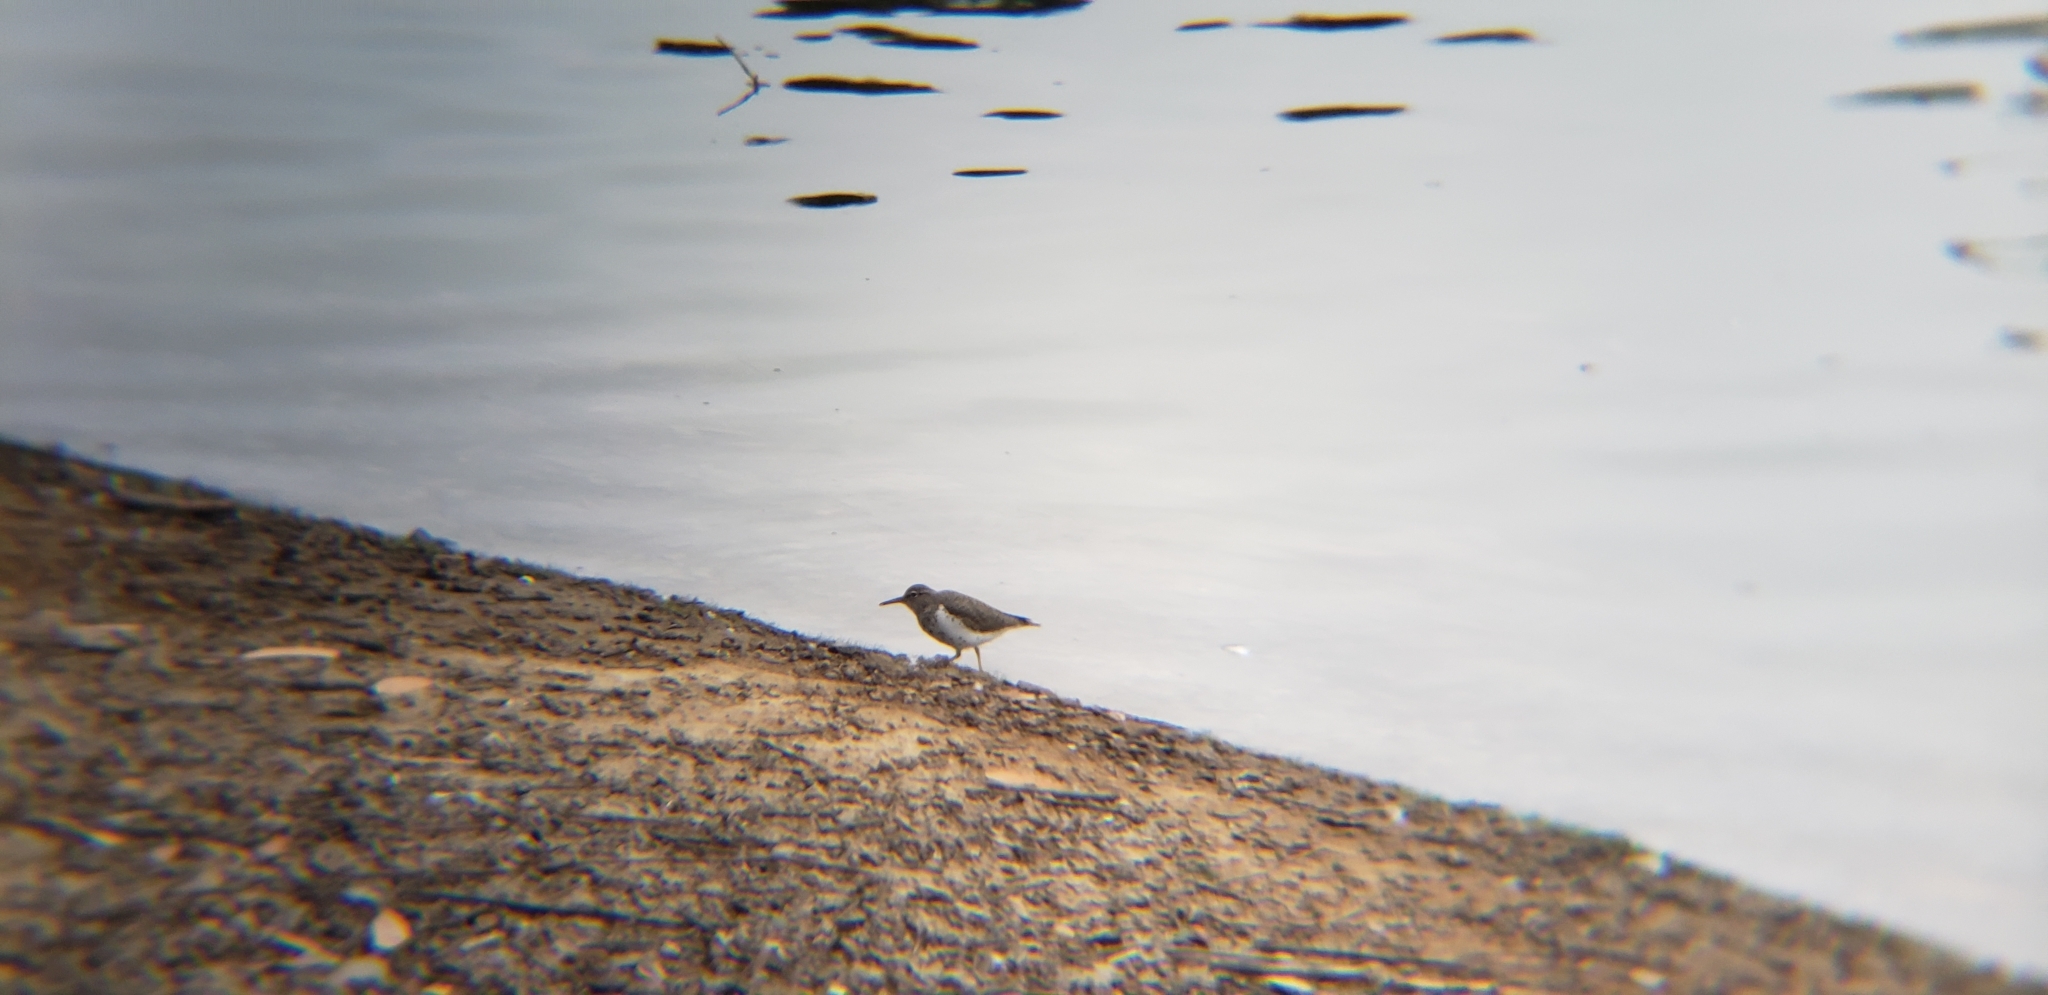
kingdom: Animalia
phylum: Chordata
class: Aves
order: Charadriiformes
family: Scolopacidae
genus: Actitis
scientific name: Actitis macularius
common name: Spotted sandpiper
